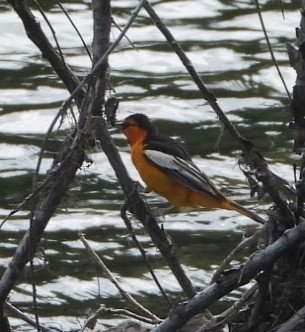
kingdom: Animalia
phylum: Chordata
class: Aves
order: Passeriformes
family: Icteridae
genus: Icterus
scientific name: Icterus bullockii
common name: Bullock's oriole
